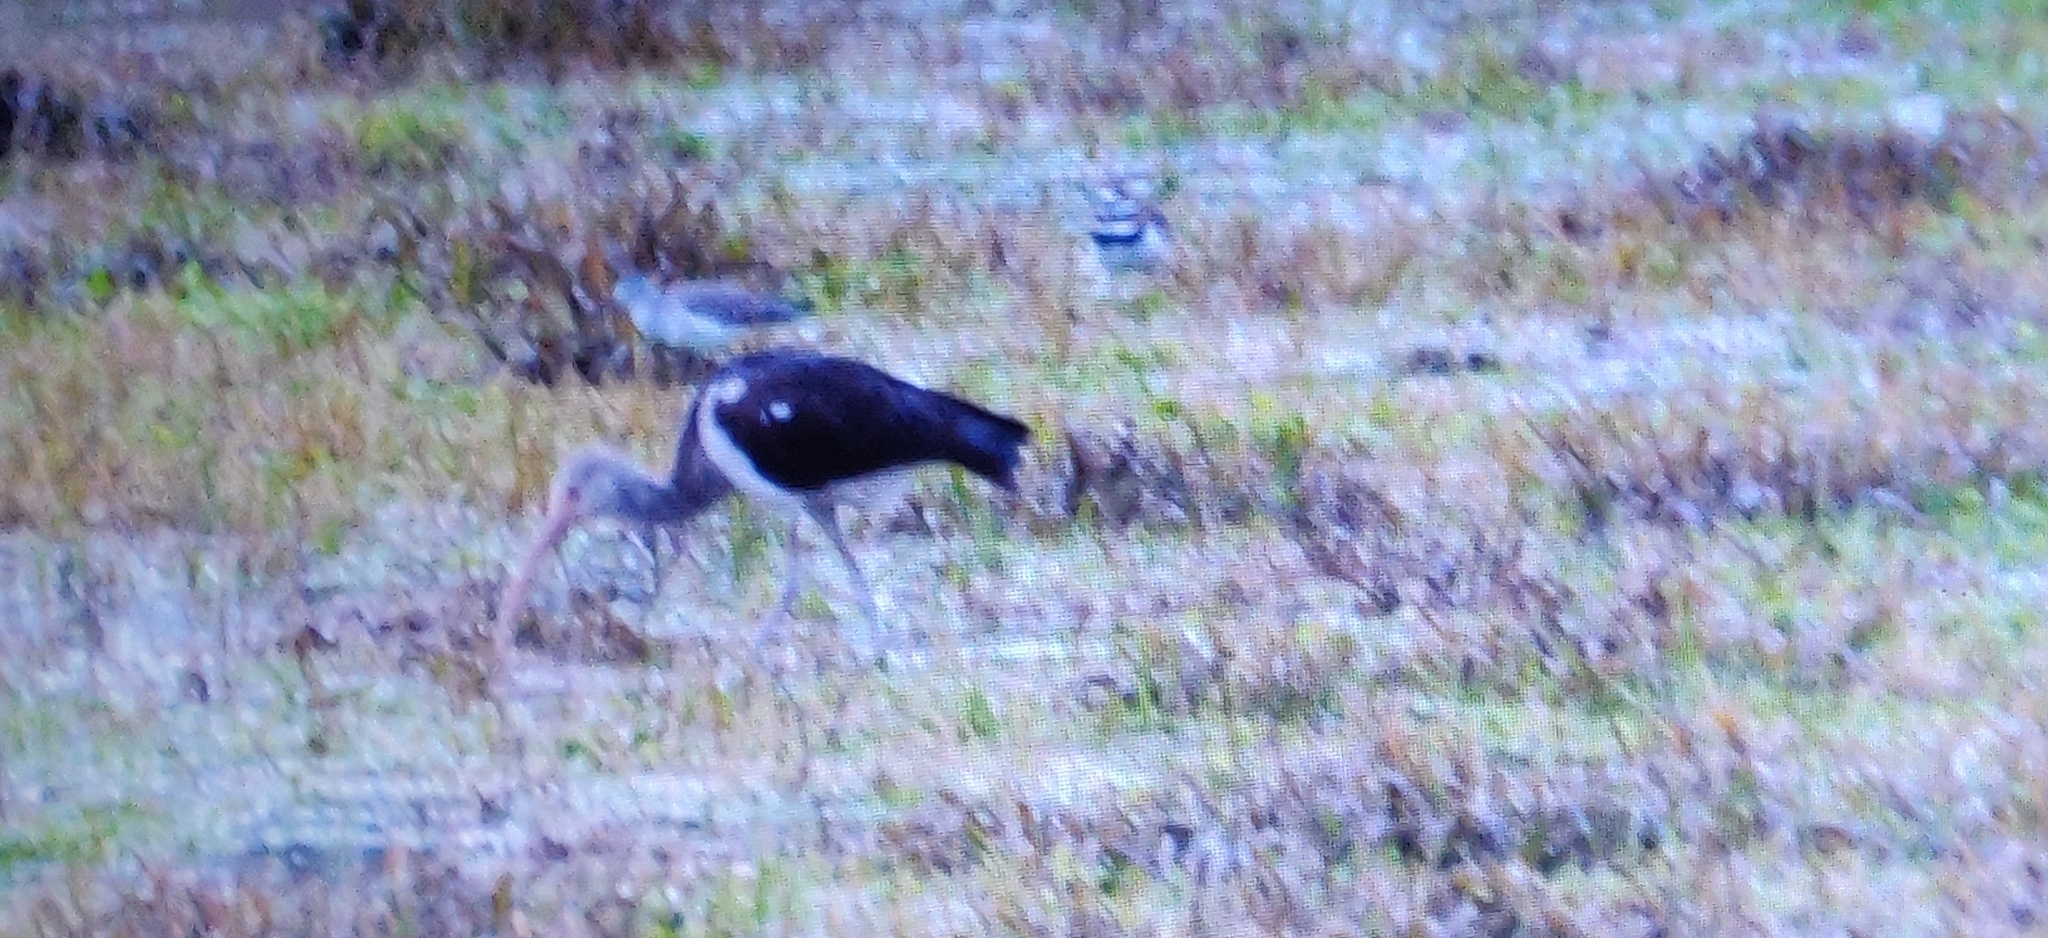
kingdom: Animalia
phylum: Chordata
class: Aves
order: Pelecaniformes
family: Threskiornithidae
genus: Eudocimus
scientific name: Eudocimus albus
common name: White ibis
